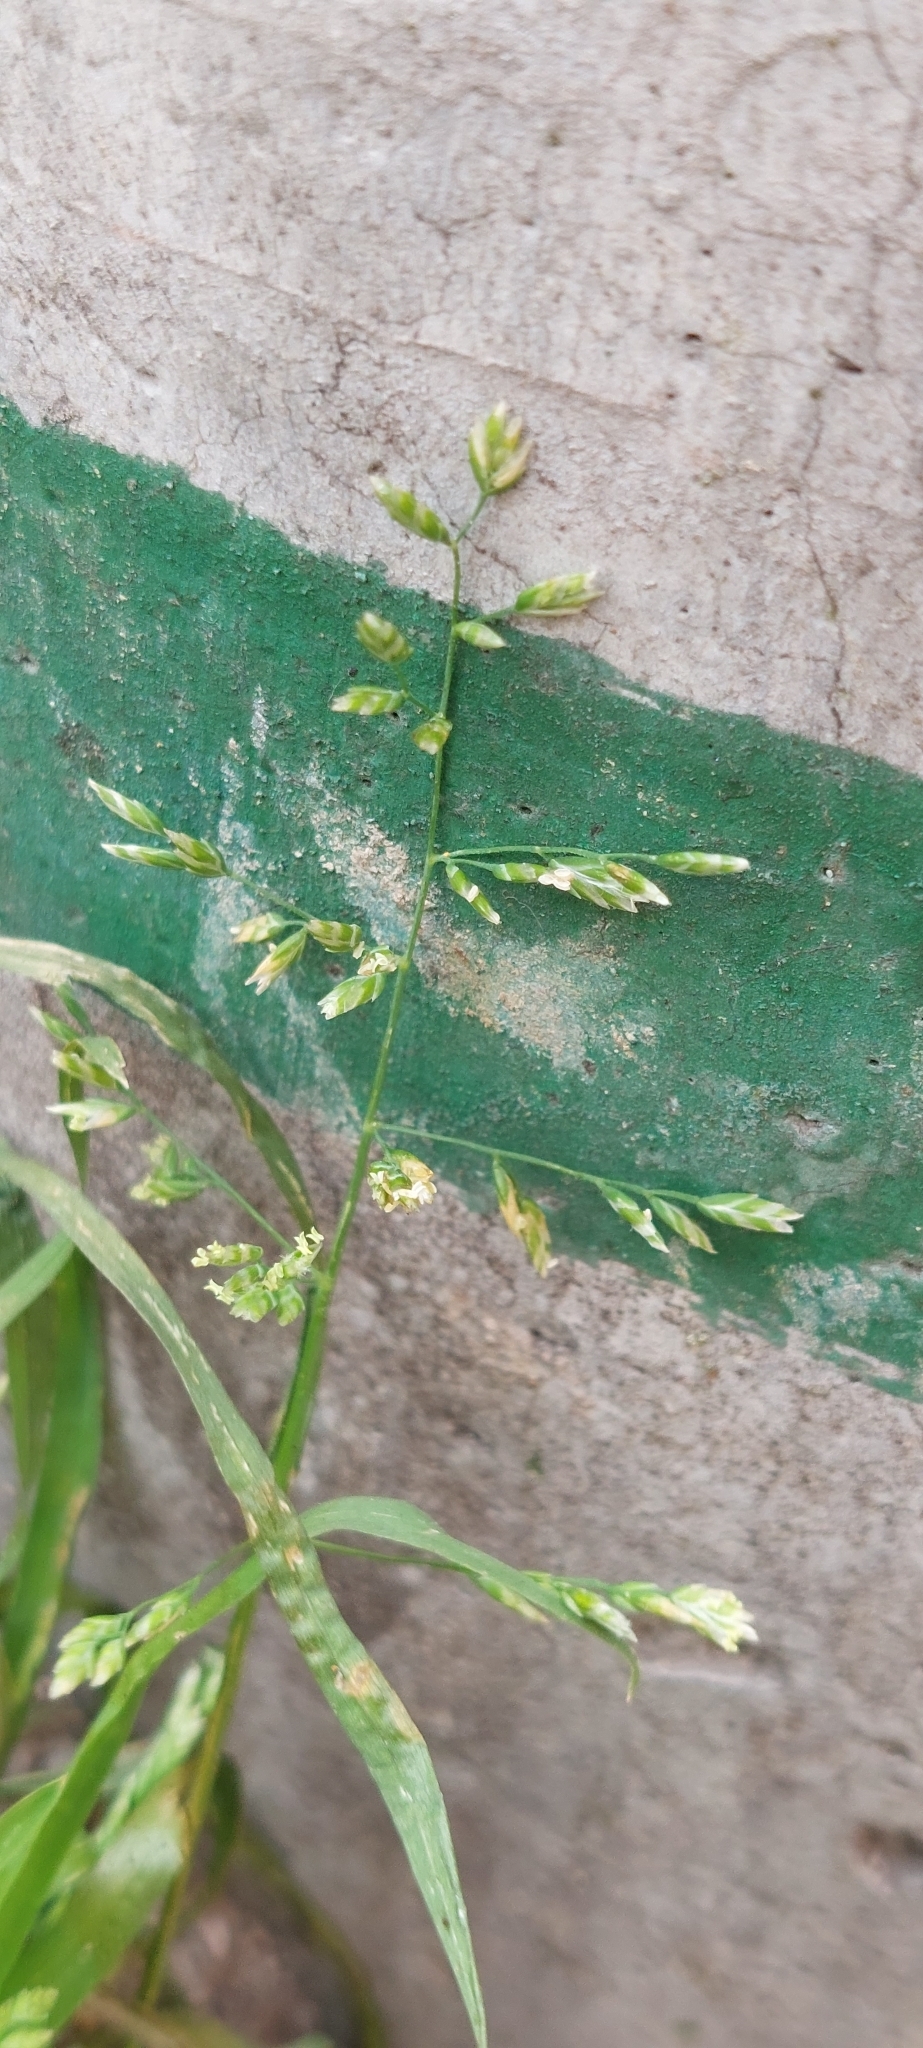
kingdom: Plantae
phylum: Tracheophyta
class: Liliopsida
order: Poales
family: Poaceae
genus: Poa
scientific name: Poa annua
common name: Annual bluegrass
